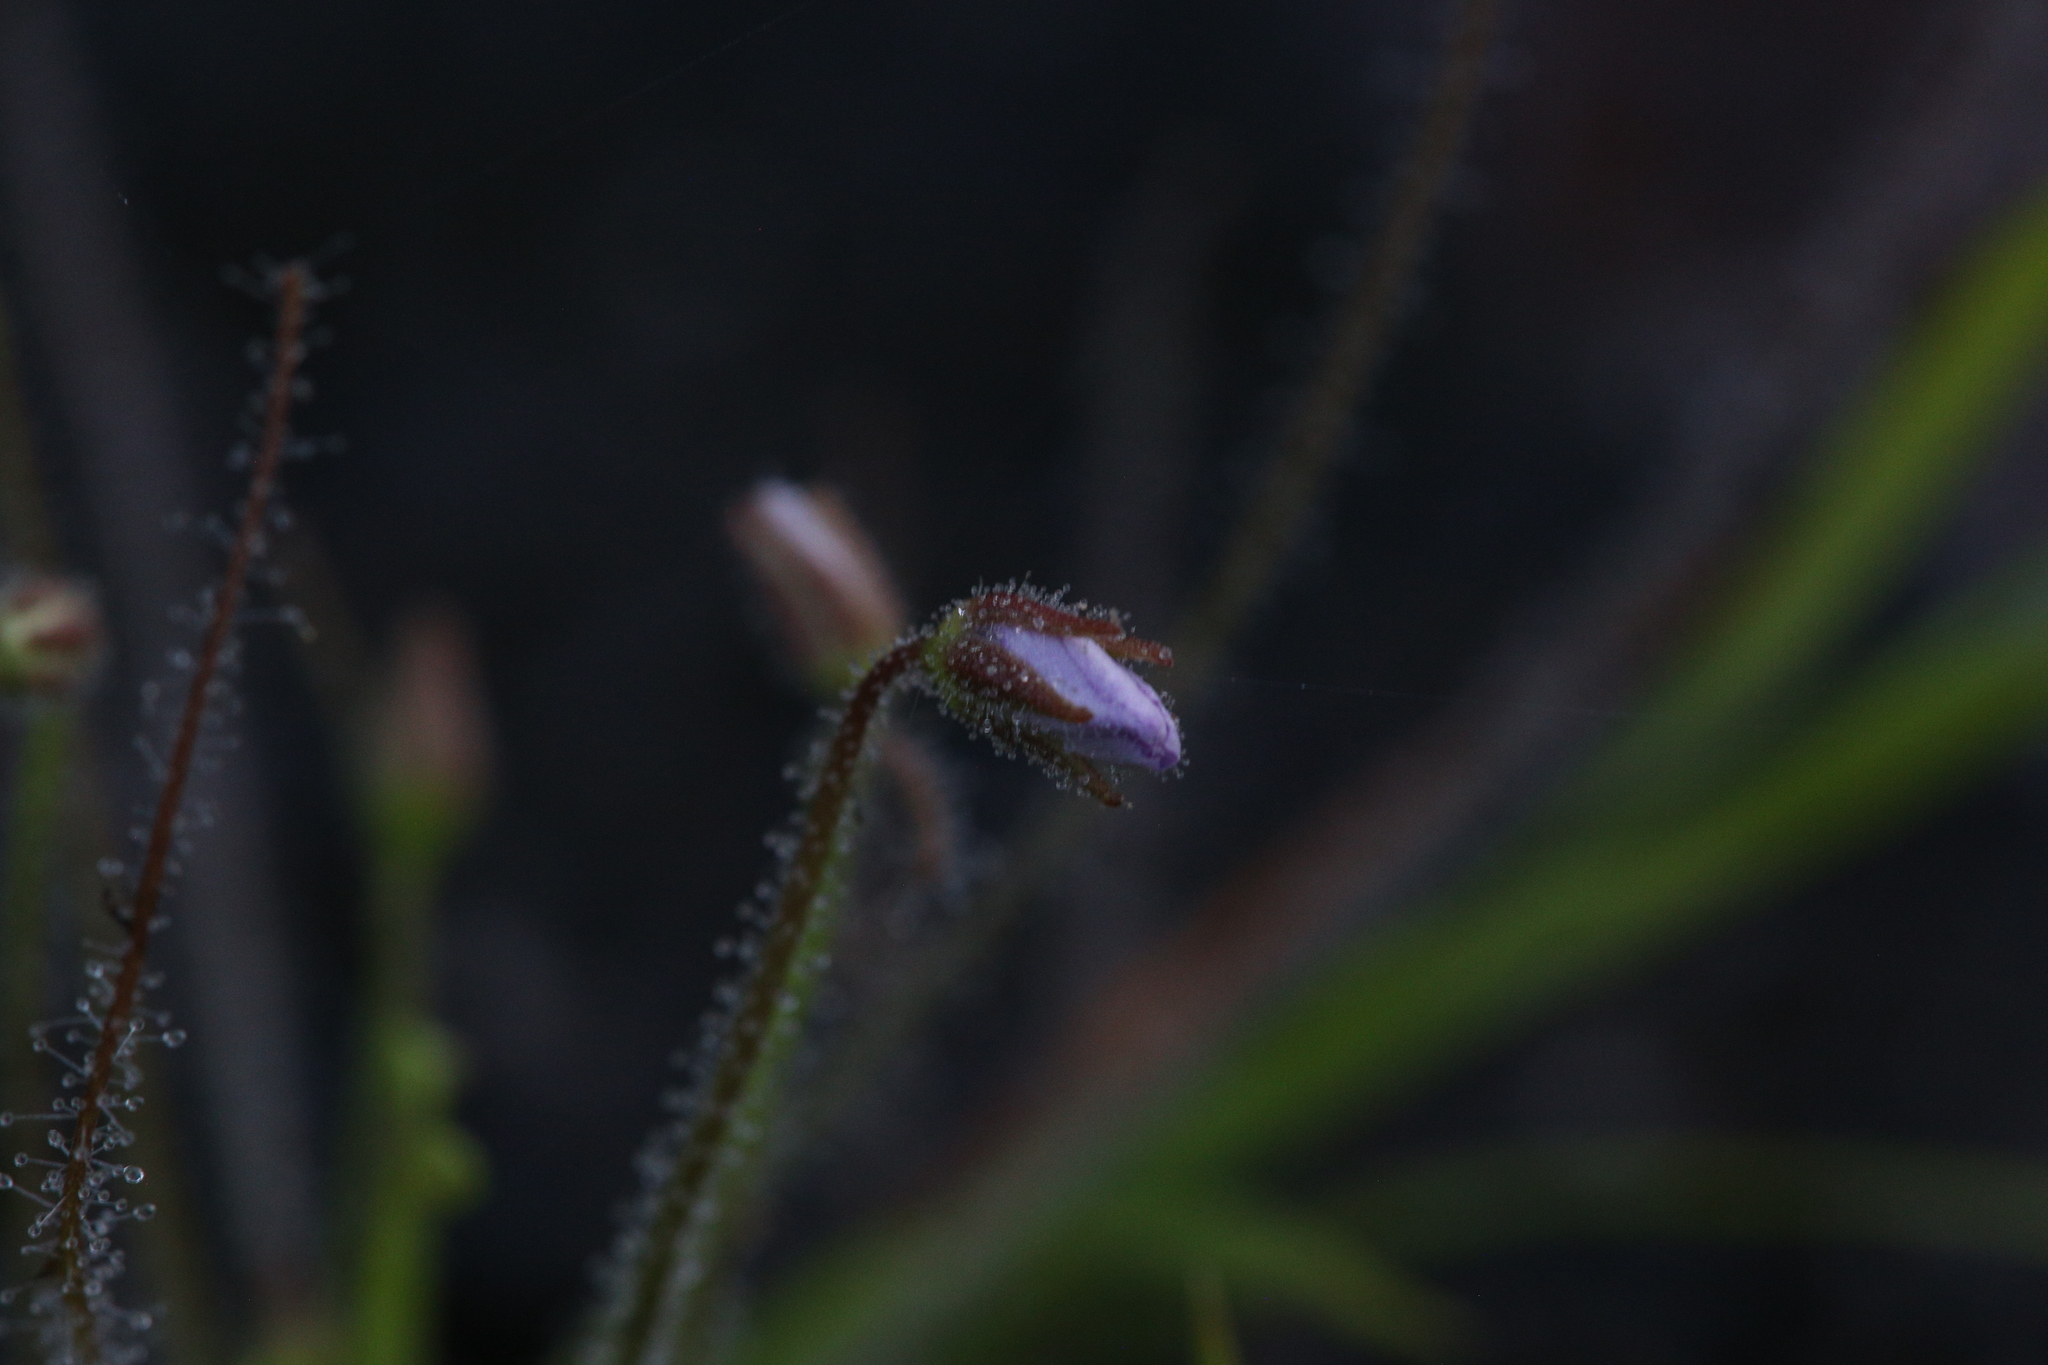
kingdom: Plantae
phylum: Tracheophyta
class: Magnoliopsida
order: Lamiales
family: Byblidaceae
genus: Byblis
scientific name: Byblis liniflora
